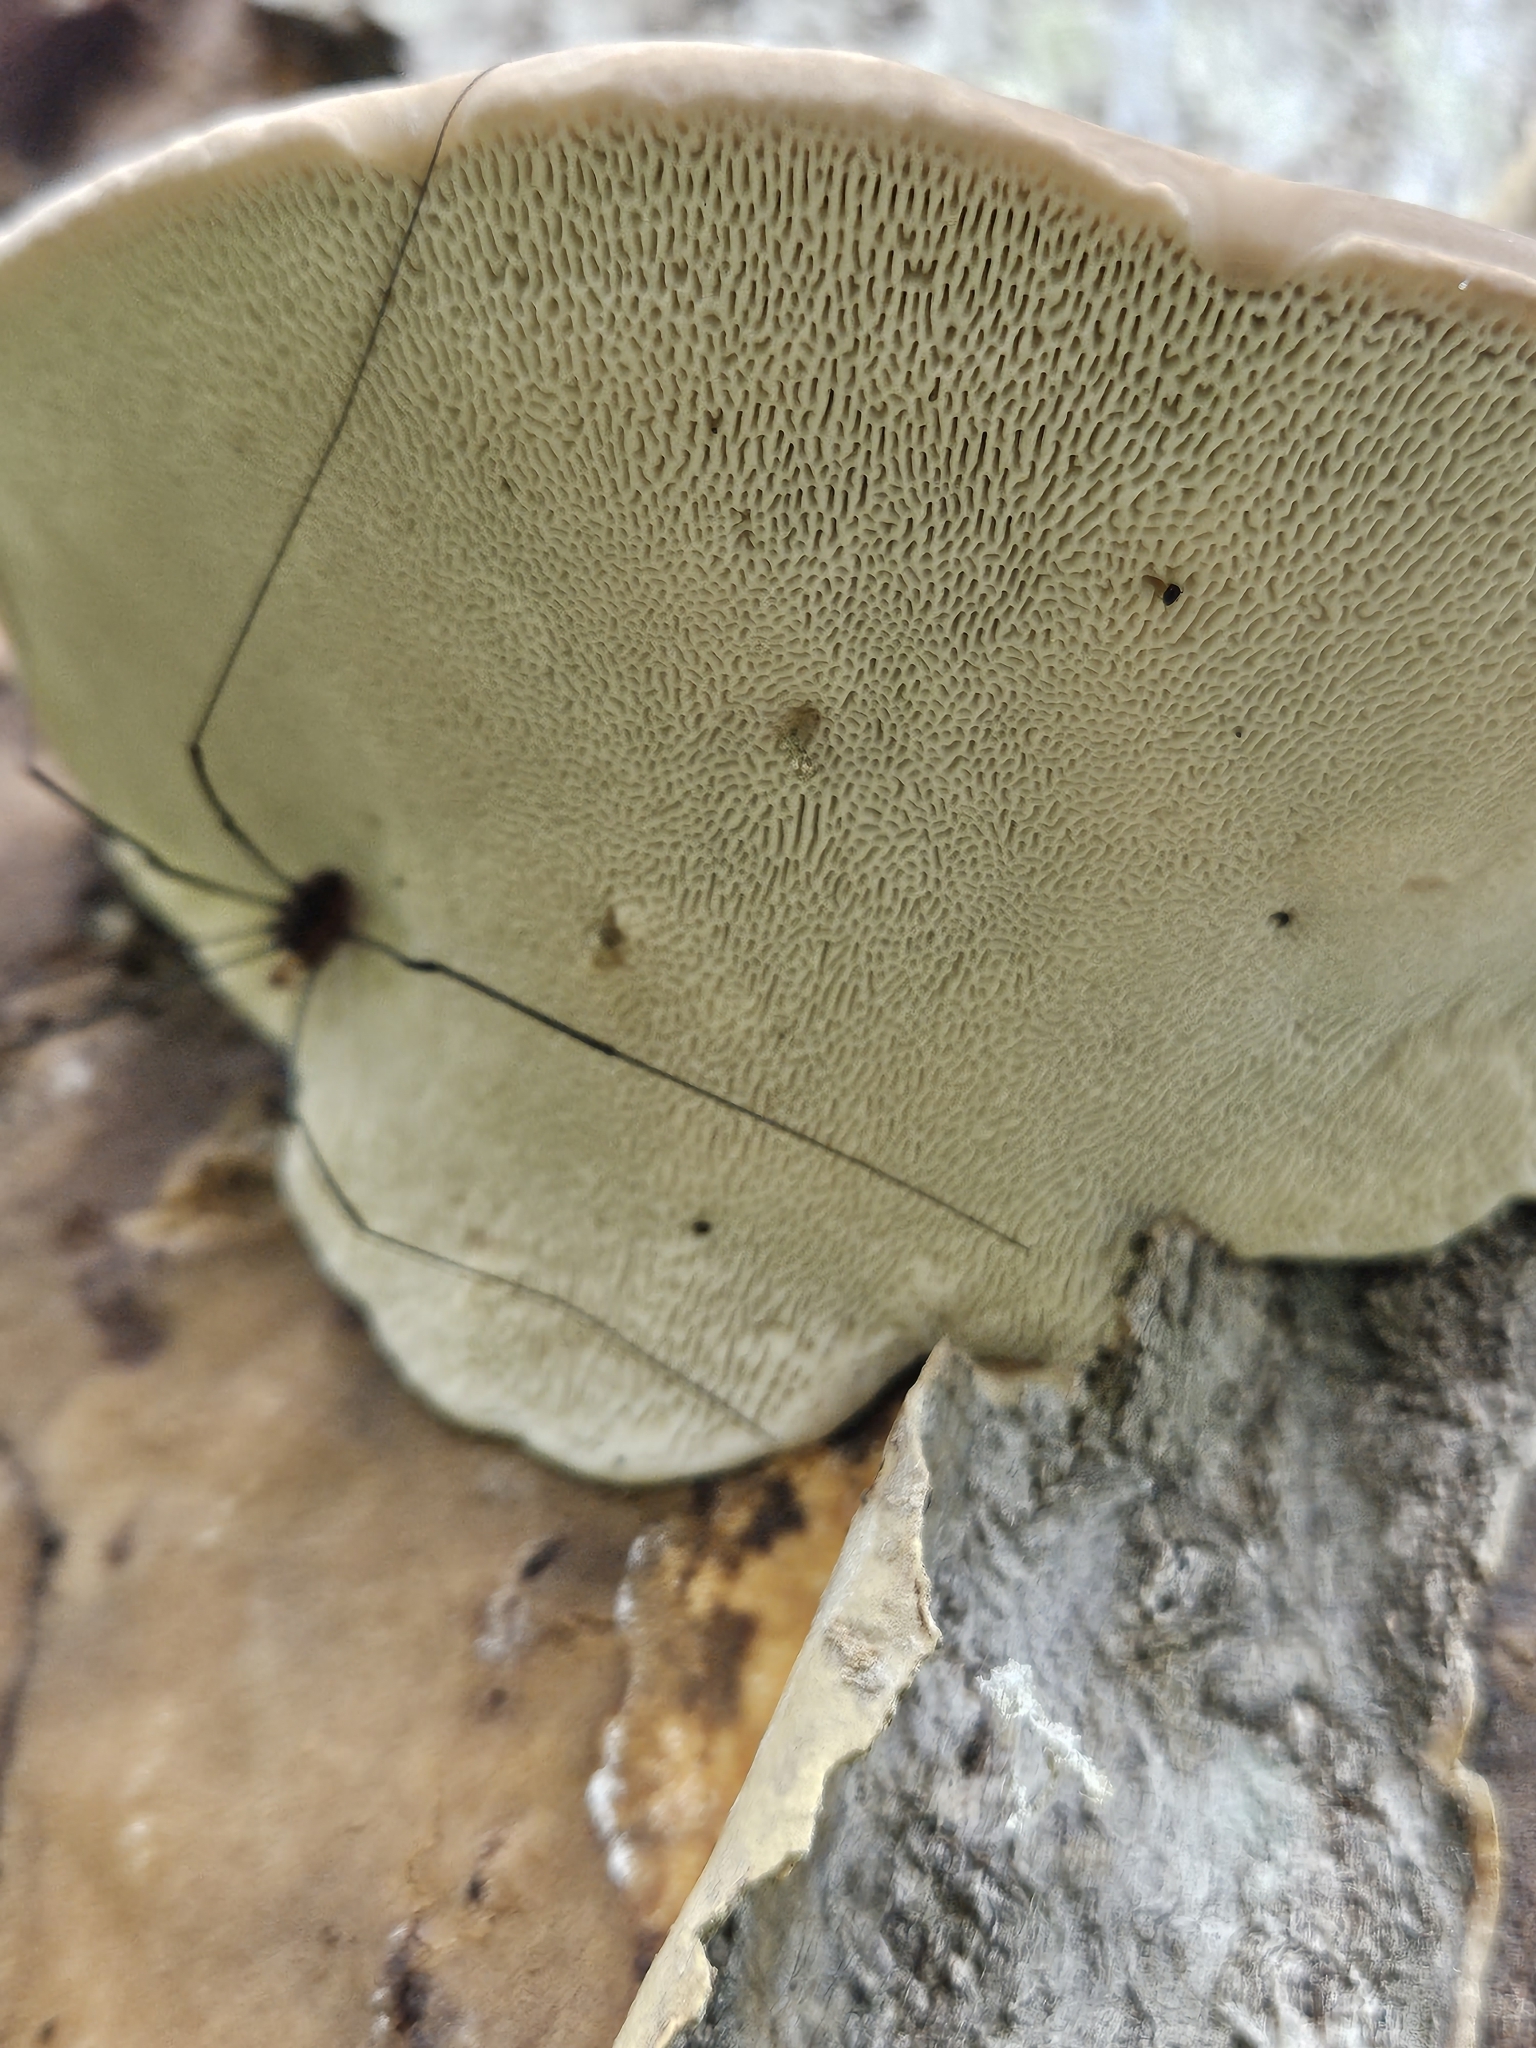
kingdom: Fungi
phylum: Basidiomycota
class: Agaricomycetes
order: Polyporales
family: Polyporaceae
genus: Trametes
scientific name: Trametes gibbosa
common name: Lumpy bracket
